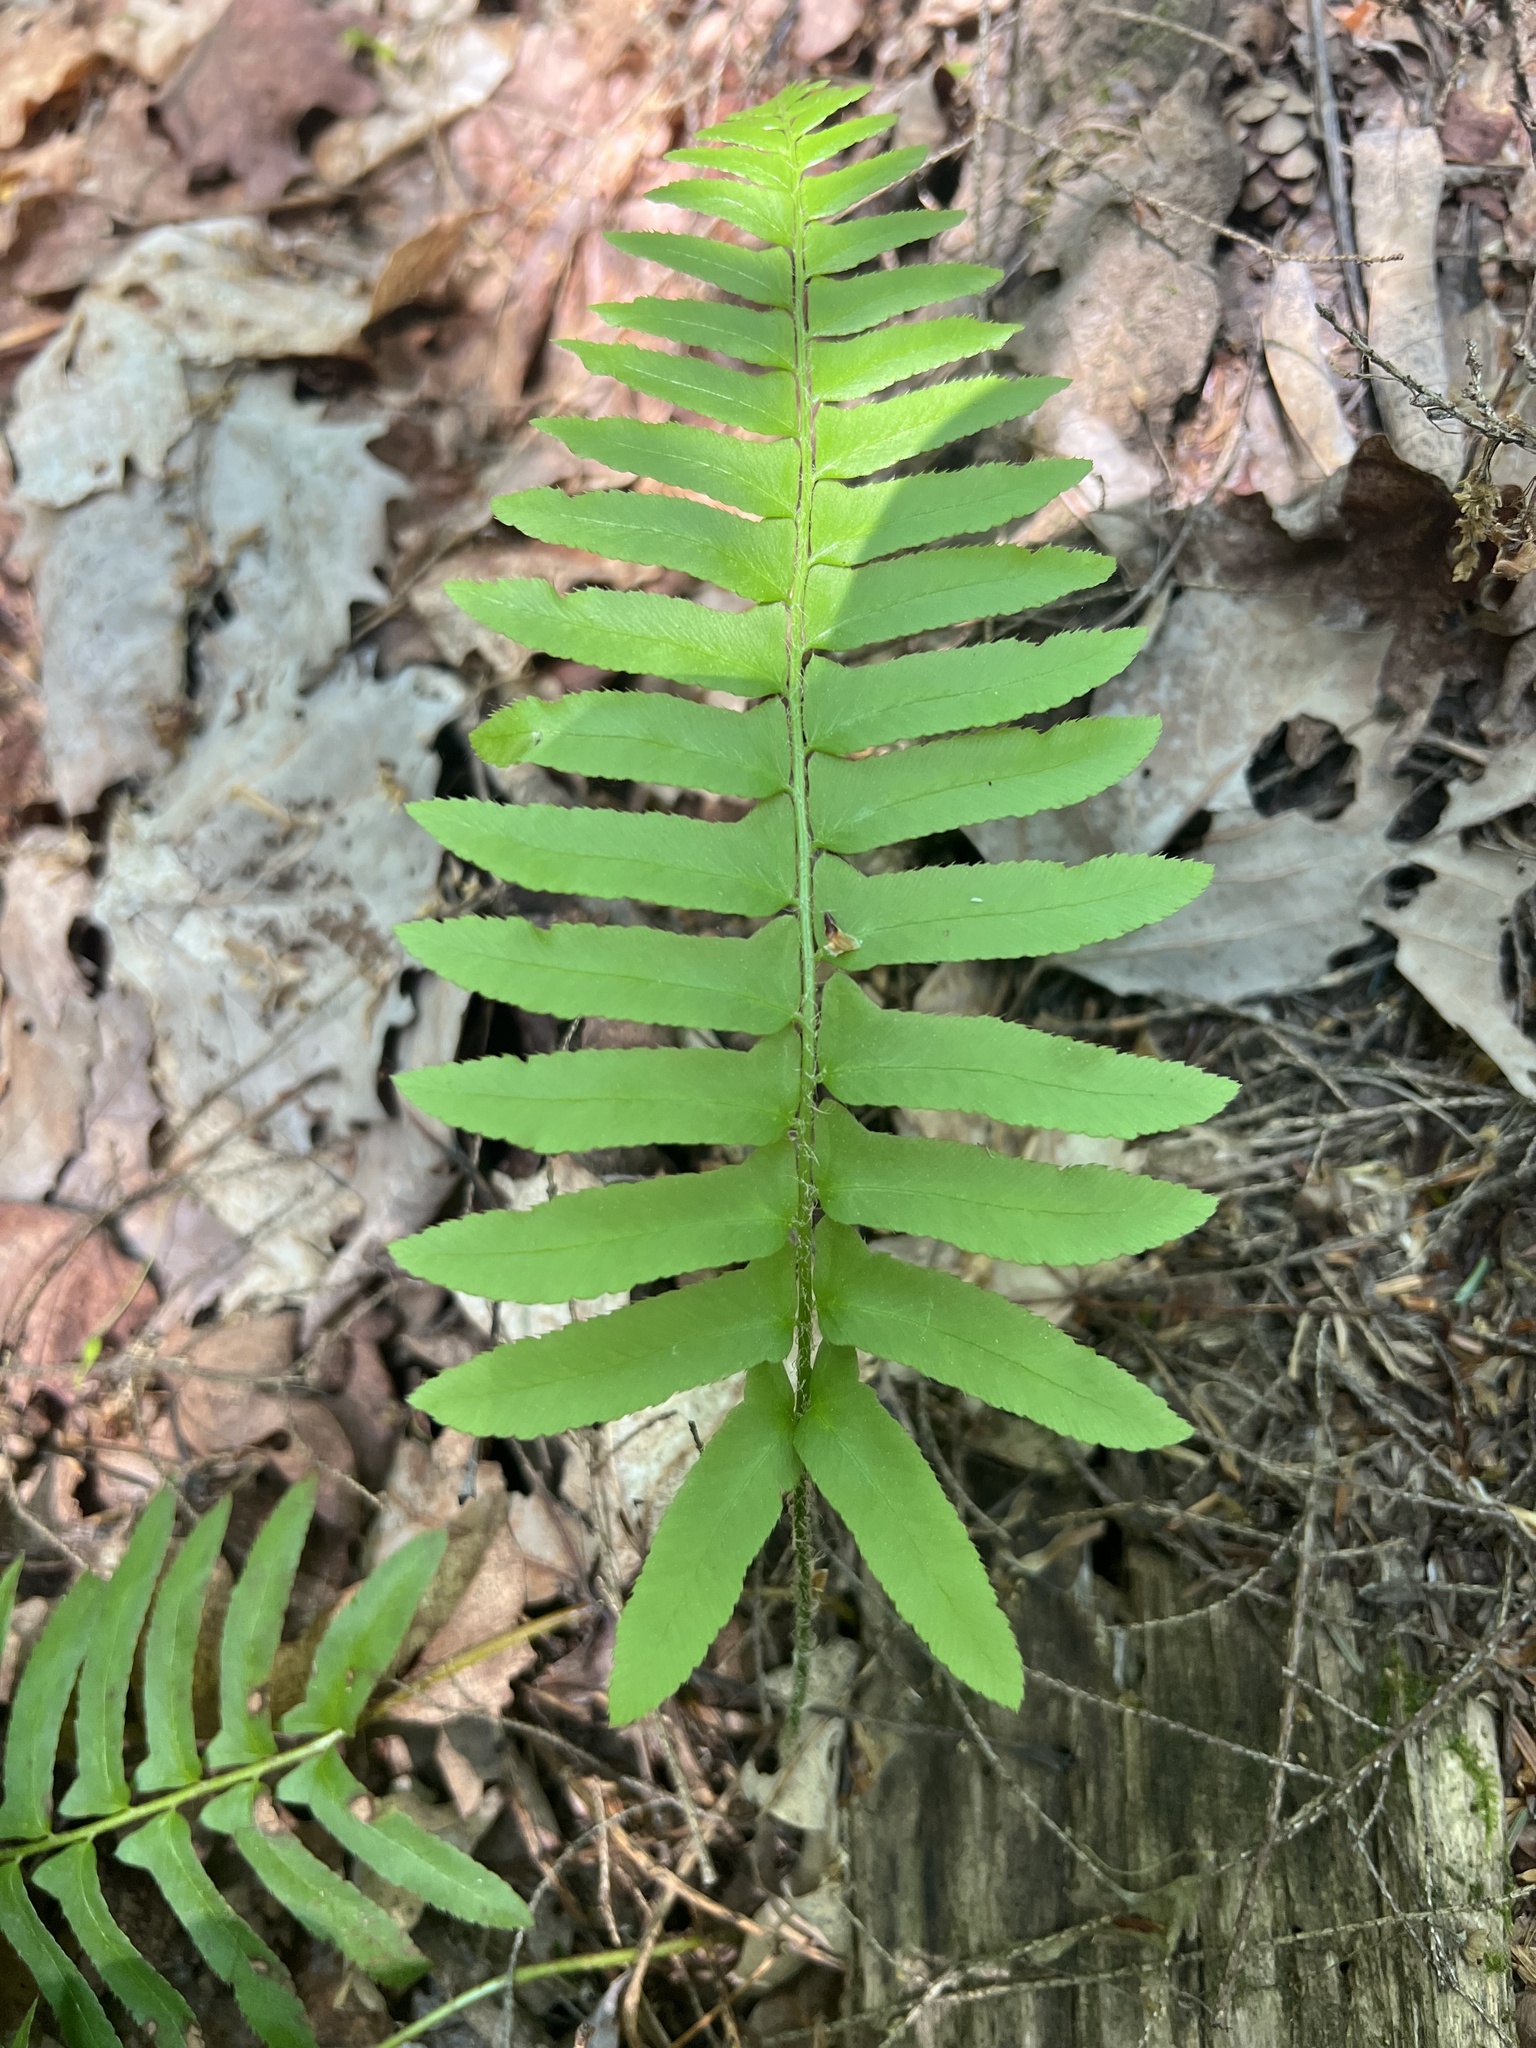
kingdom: Plantae
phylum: Tracheophyta
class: Polypodiopsida
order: Polypodiales
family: Dryopteridaceae
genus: Polystichum
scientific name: Polystichum acrostichoides
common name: Christmas fern
